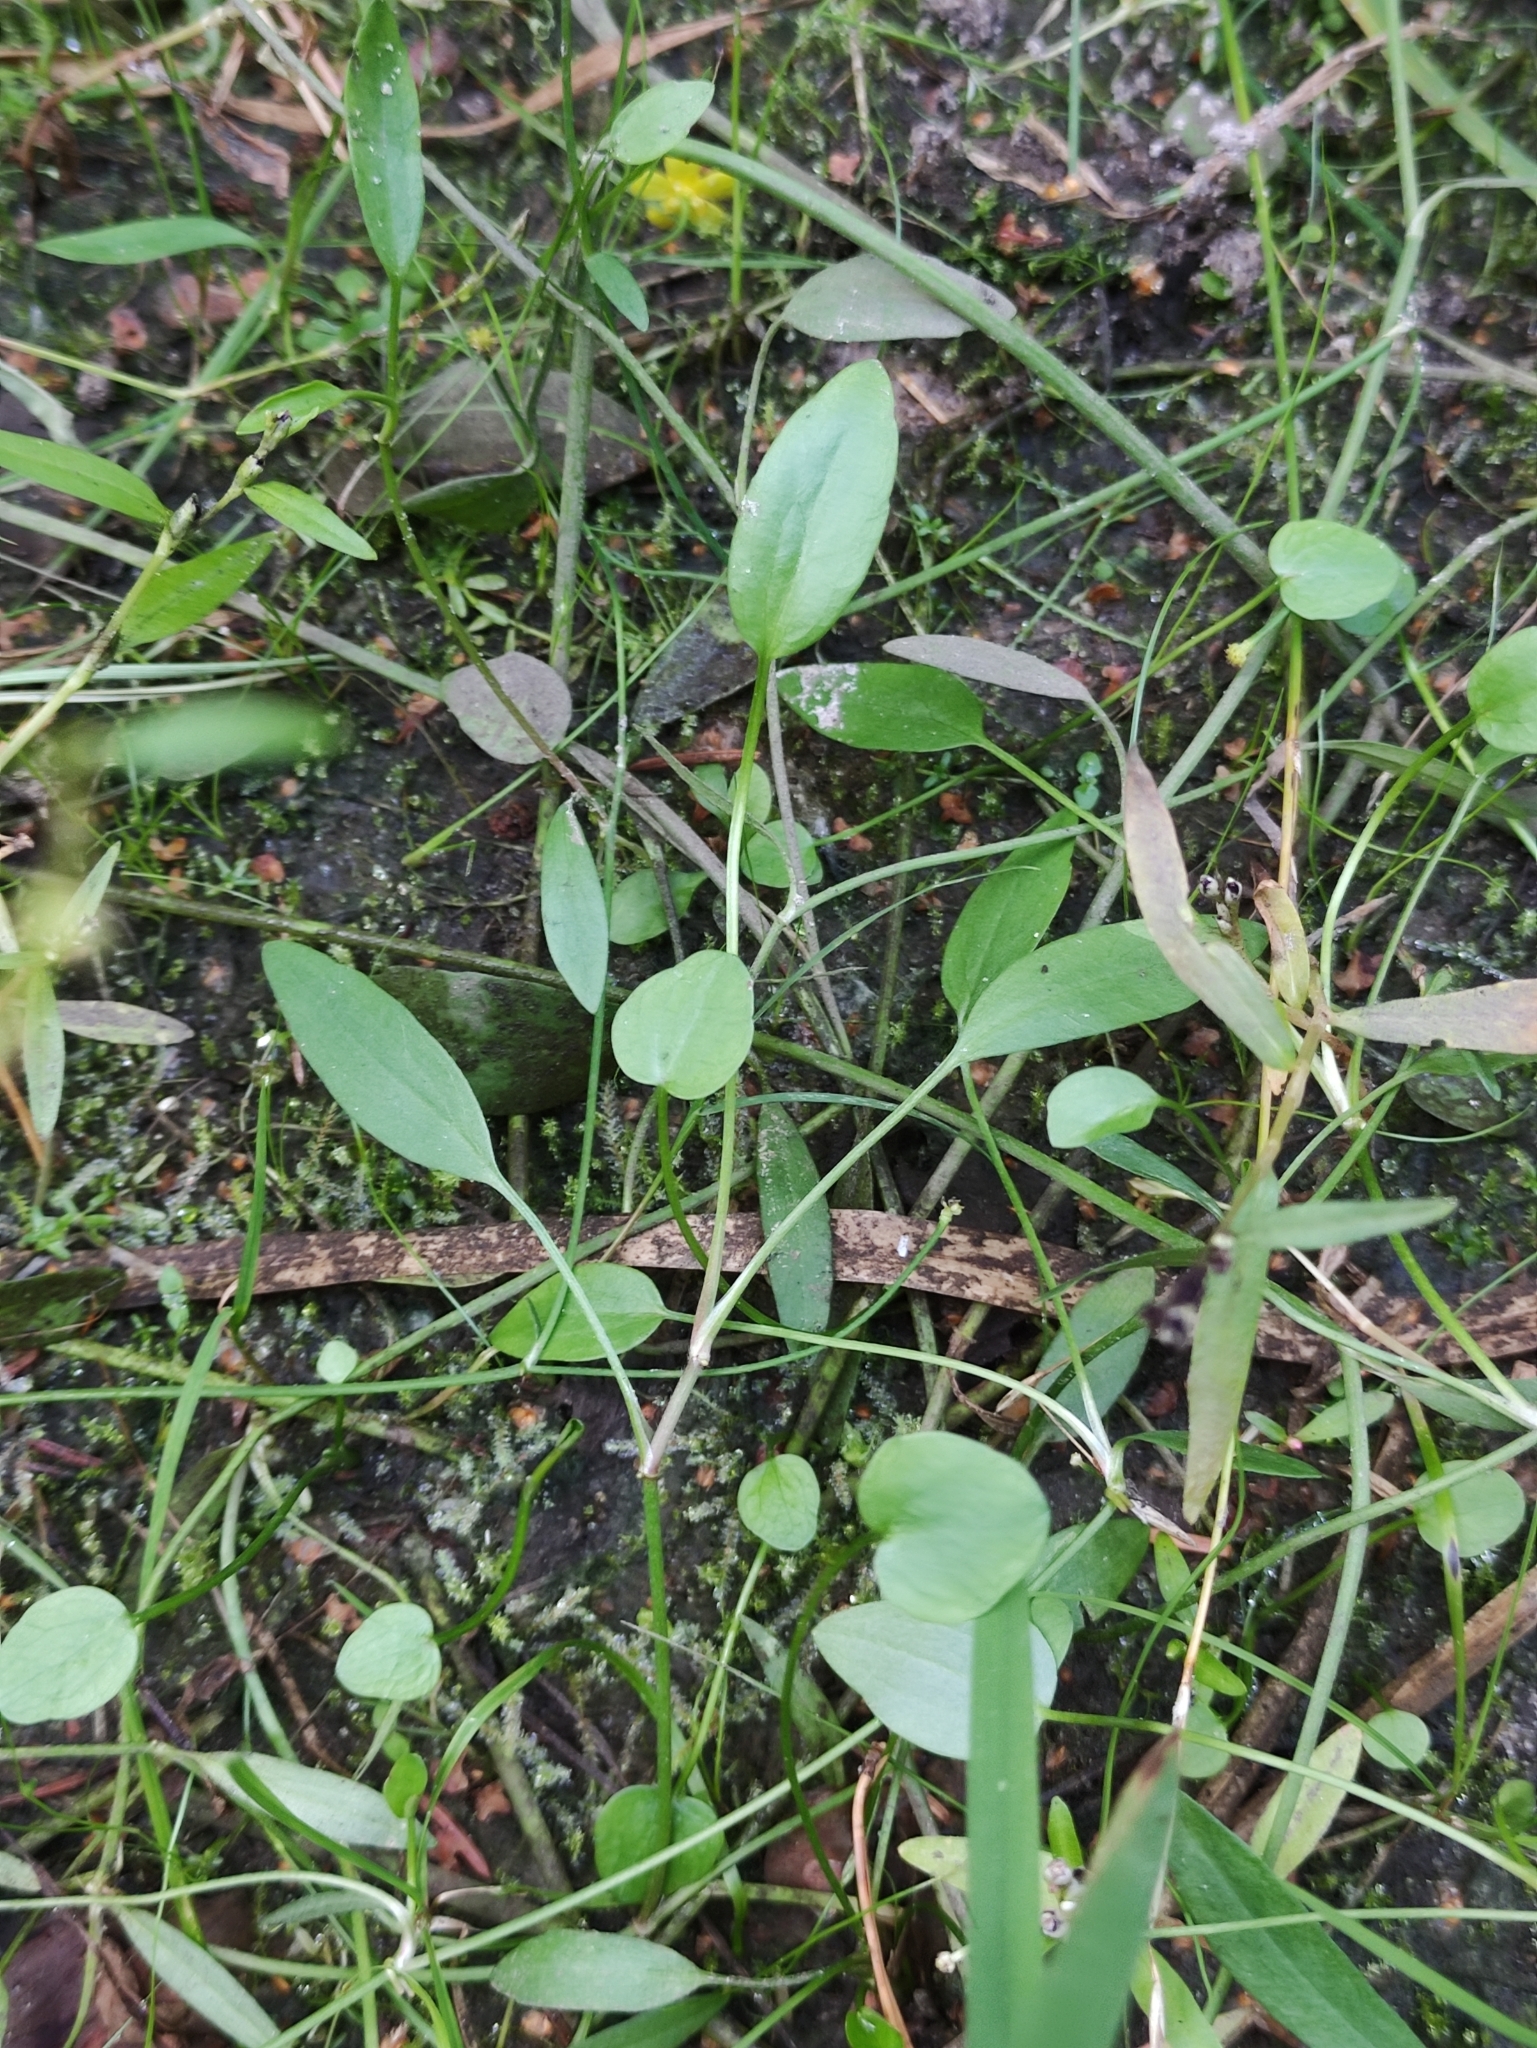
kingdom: Plantae
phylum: Tracheophyta
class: Magnoliopsida
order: Ranunculales
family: Ranunculaceae
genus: Ranunculus
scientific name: Ranunculus flammula
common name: Lesser spearwort
